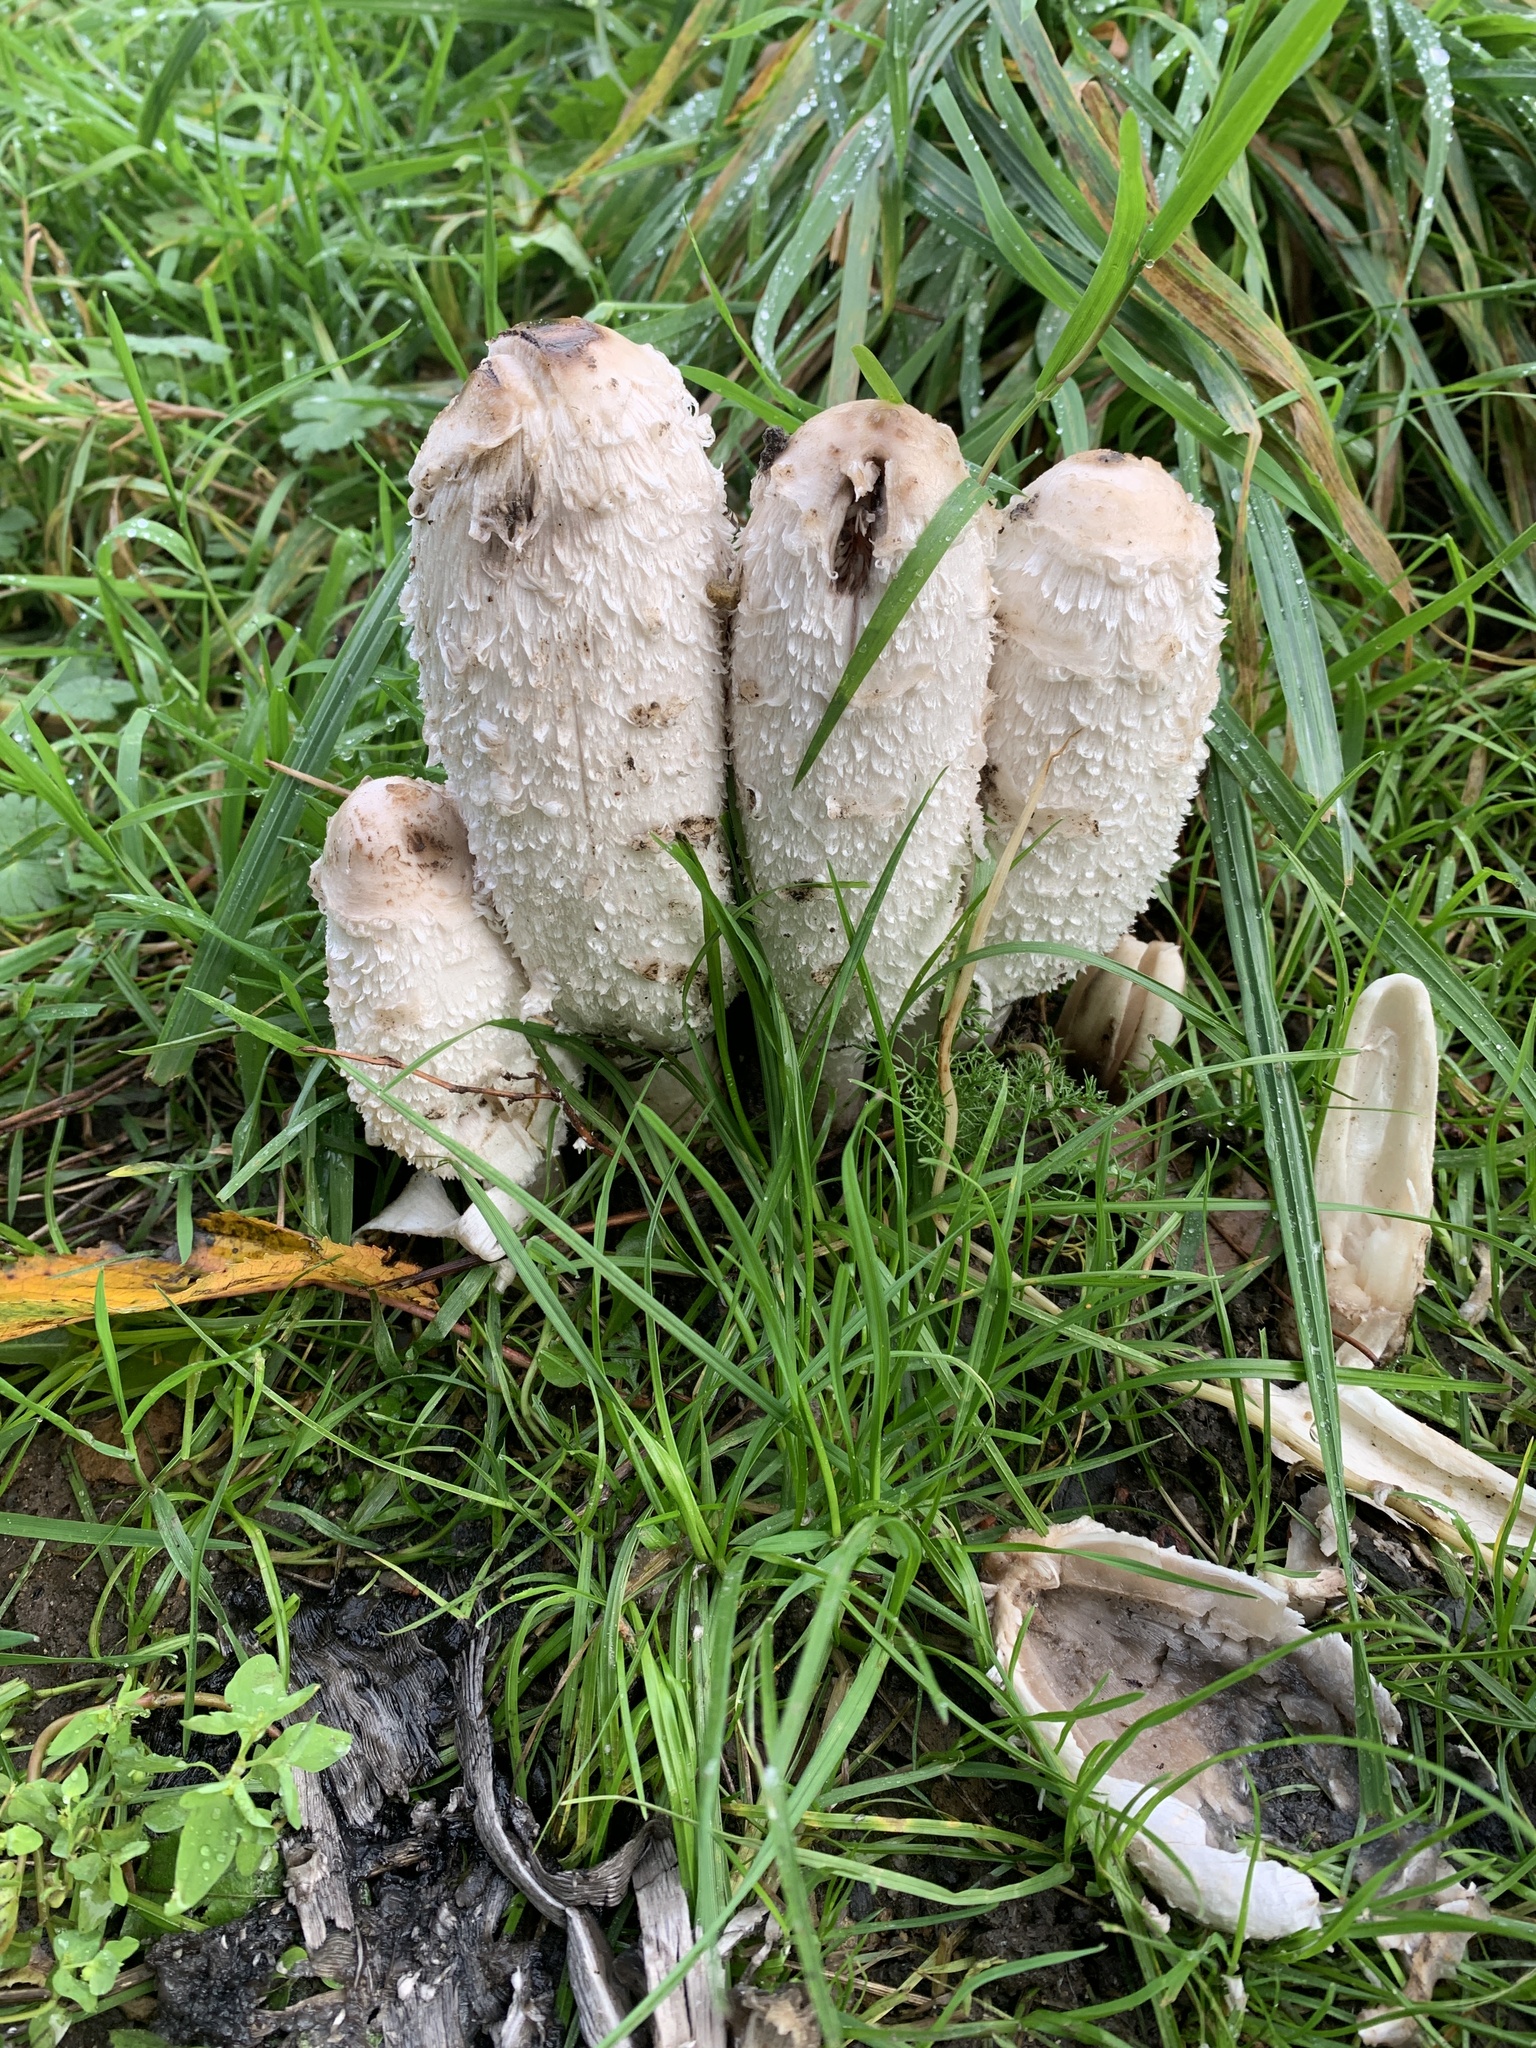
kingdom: Fungi
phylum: Basidiomycota
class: Agaricomycetes
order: Agaricales
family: Agaricaceae
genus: Coprinus
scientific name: Coprinus comatus
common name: Lawyer's wig
